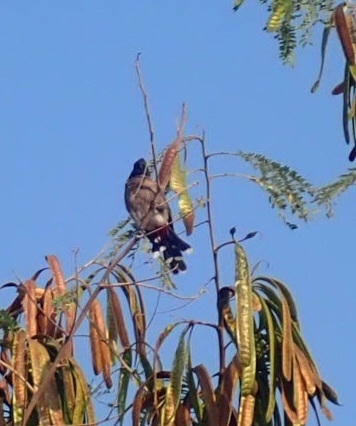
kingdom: Animalia
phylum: Chordata
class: Aves
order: Passeriformes
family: Pycnonotidae
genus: Pycnonotus
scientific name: Pycnonotus cafer
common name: Red-vented bulbul
